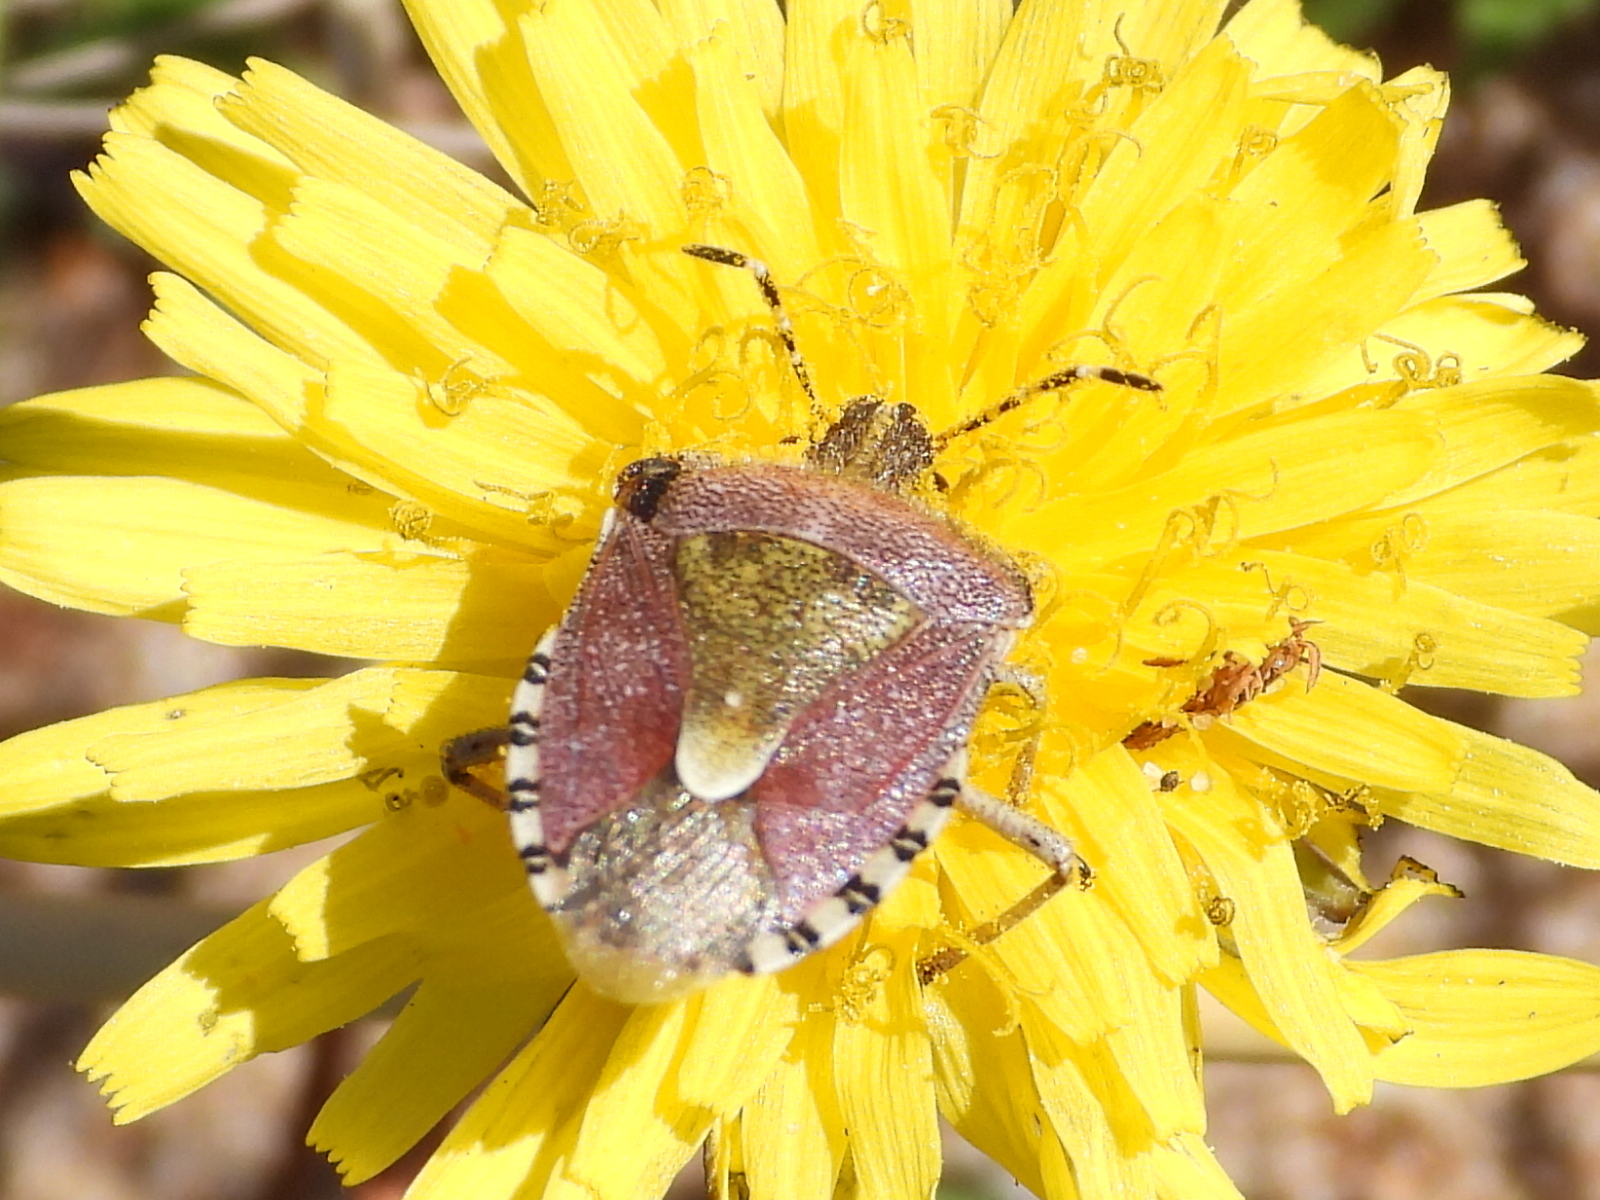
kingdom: Animalia
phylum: Arthropoda
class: Insecta
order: Hemiptera
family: Pentatomidae
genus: Dolycoris
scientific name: Dolycoris baccarum
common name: Sloe bug
